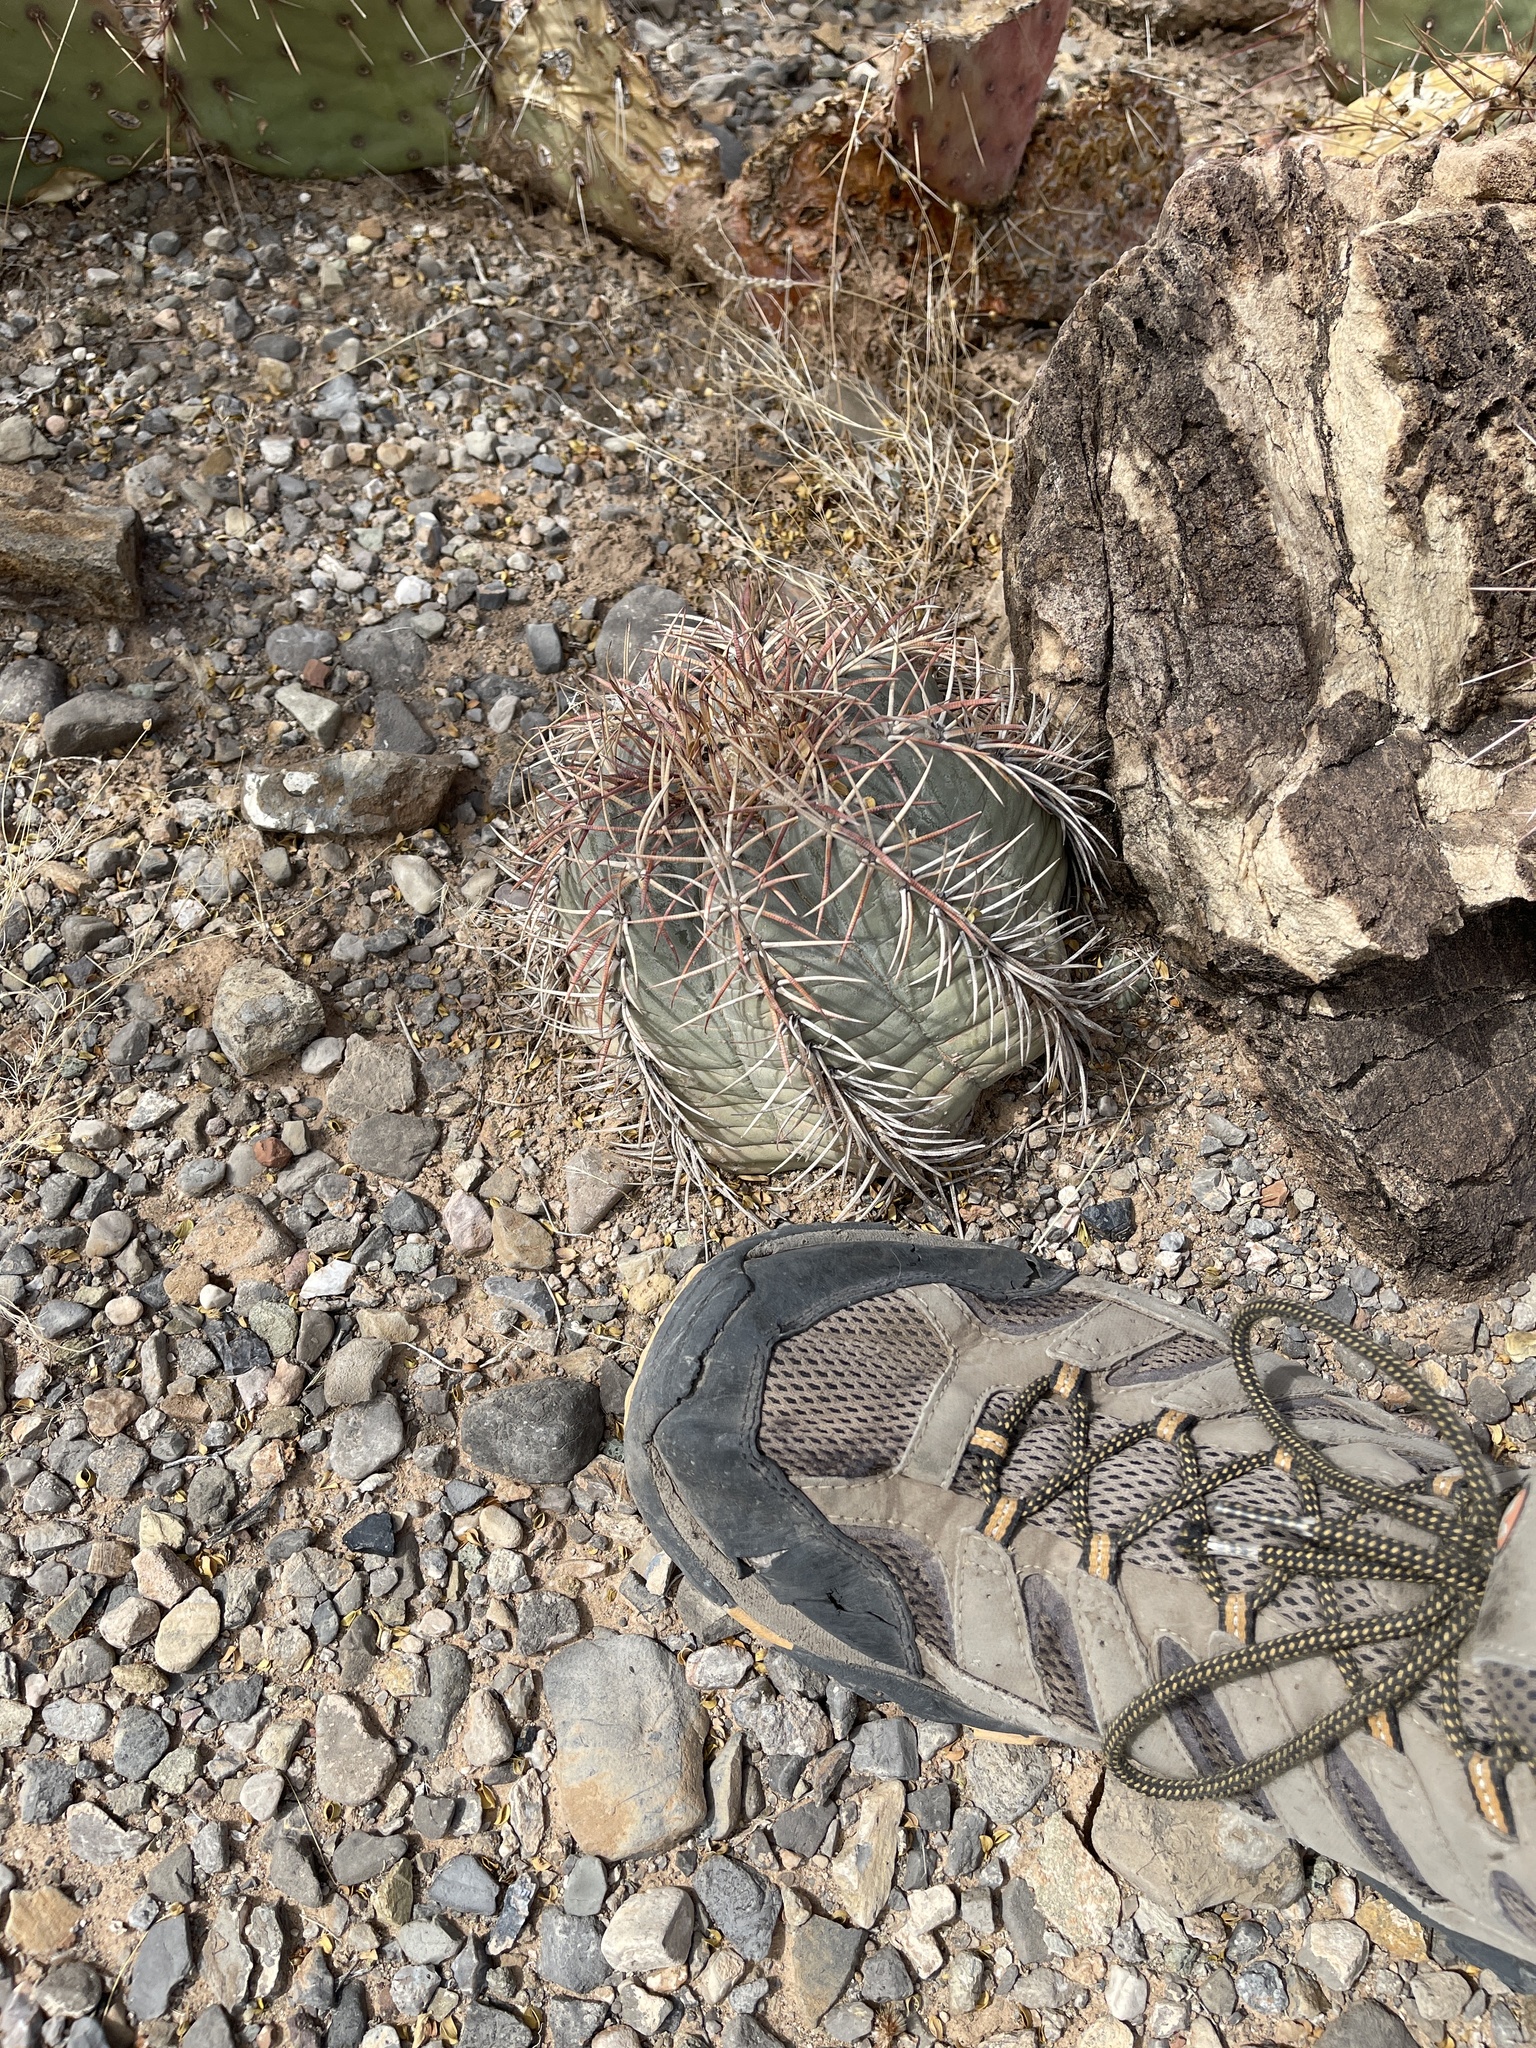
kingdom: Plantae
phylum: Tracheophyta
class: Magnoliopsida
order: Caryophyllales
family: Cactaceae
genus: Echinocactus
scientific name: Echinocactus horizonthalonius
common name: Devilshead
